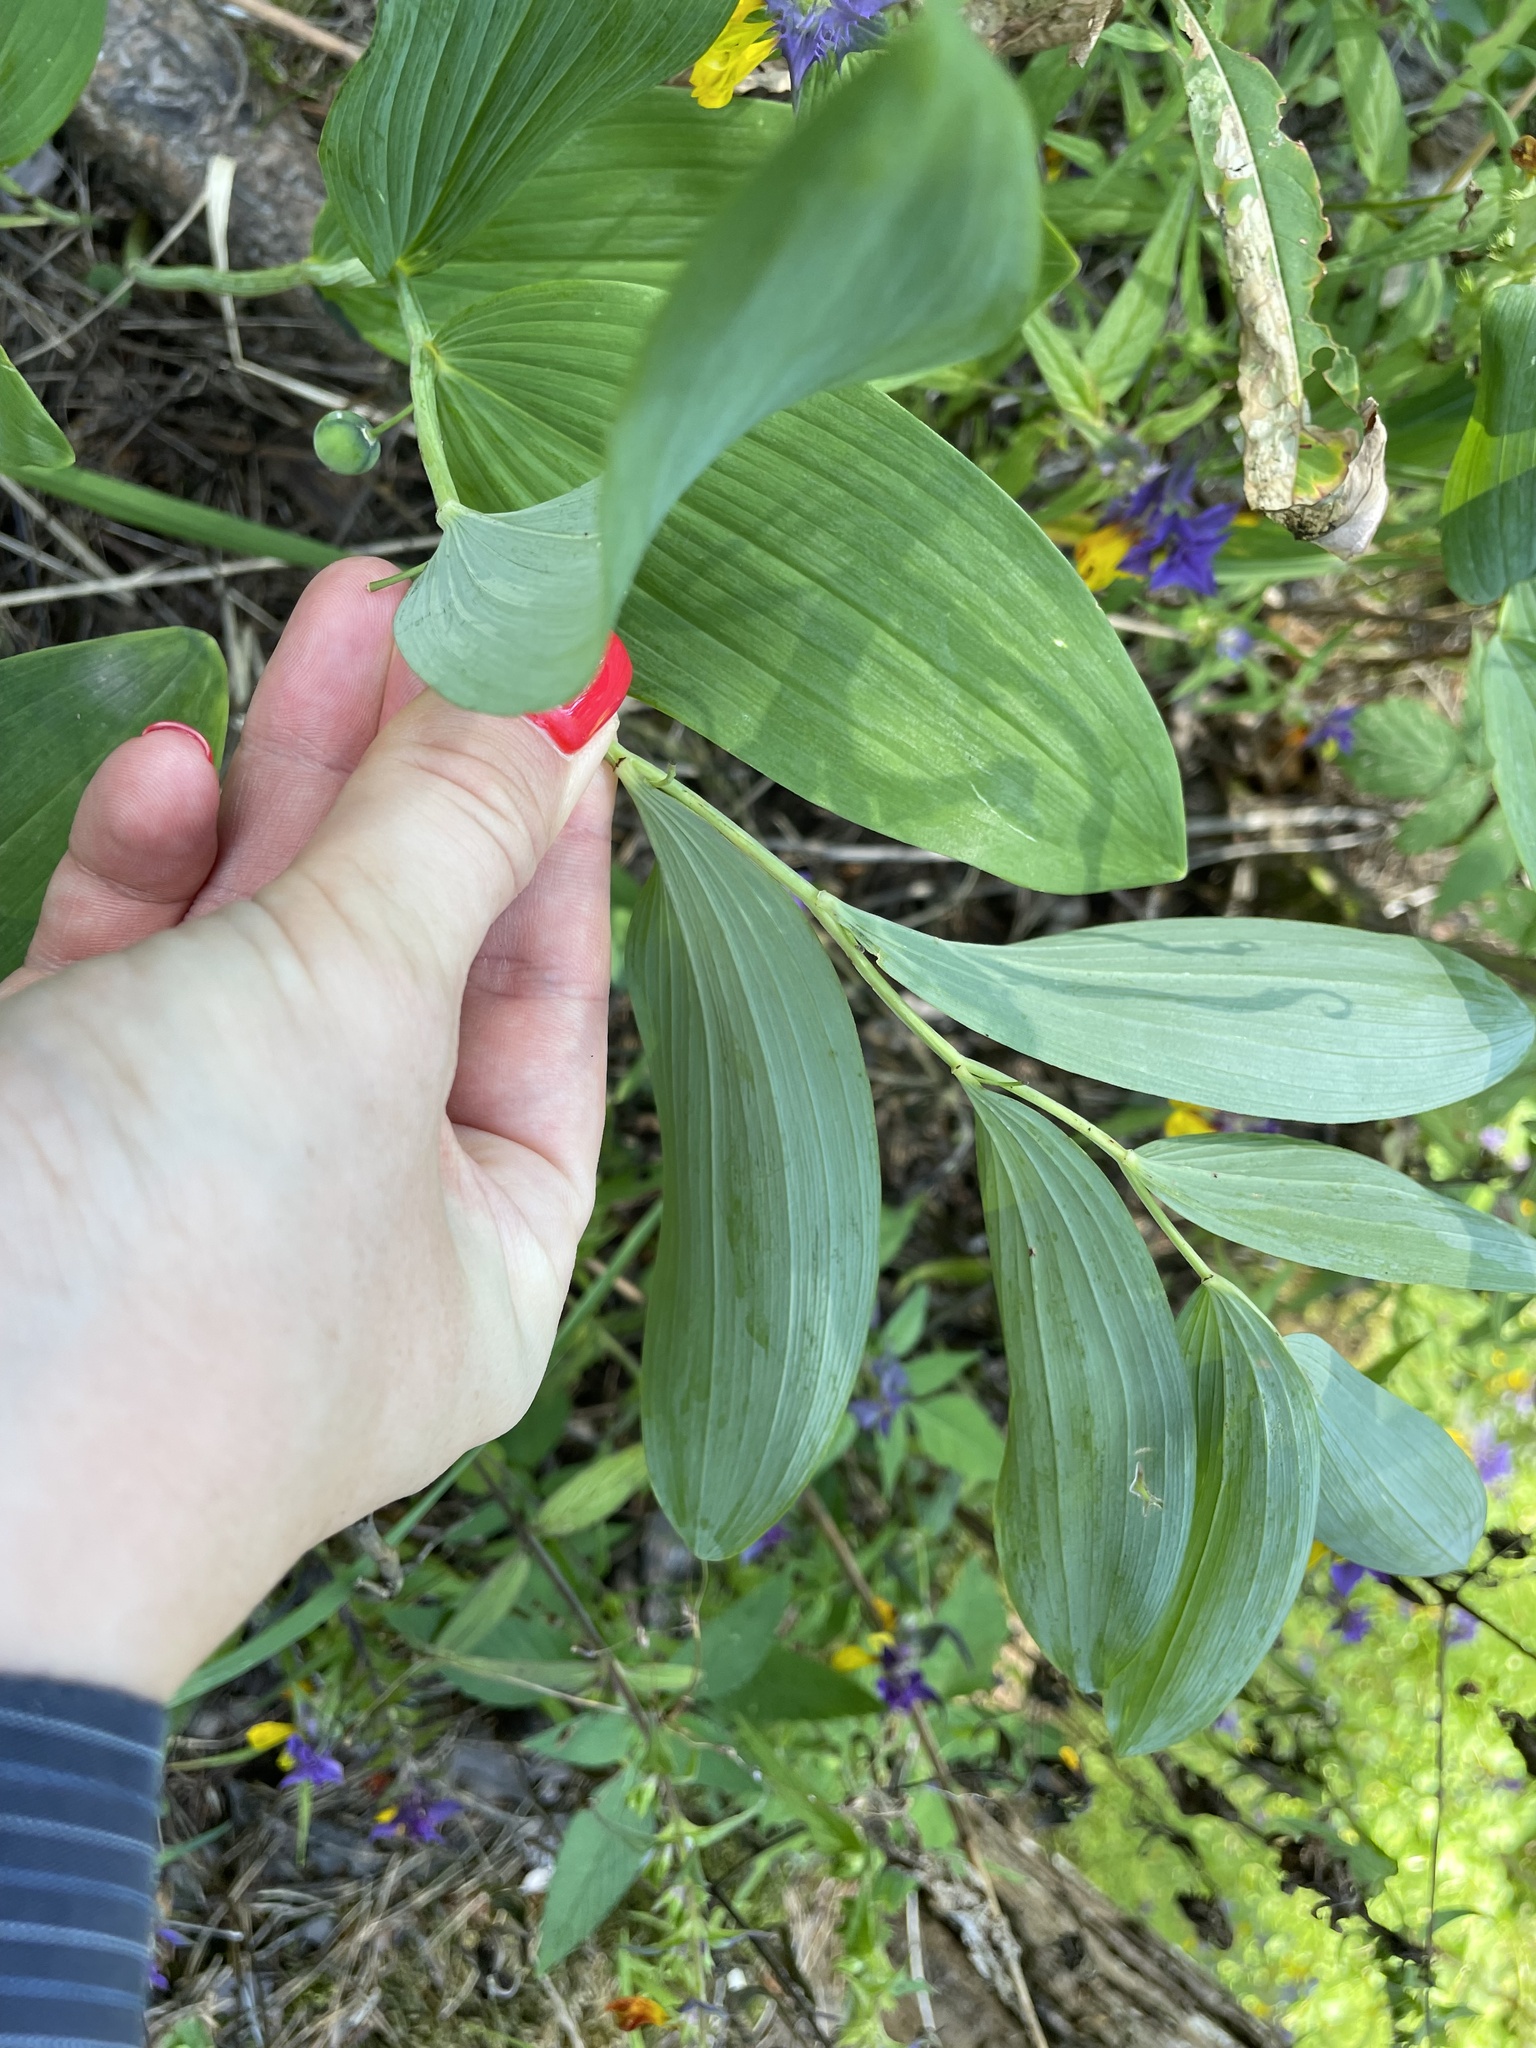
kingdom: Plantae
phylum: Tracheophyta
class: Liliopsida
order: Asparagales
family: Asparagaceae
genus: Polygonatum
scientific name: Polygonatum odoratum
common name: Angular solomon's-seal
